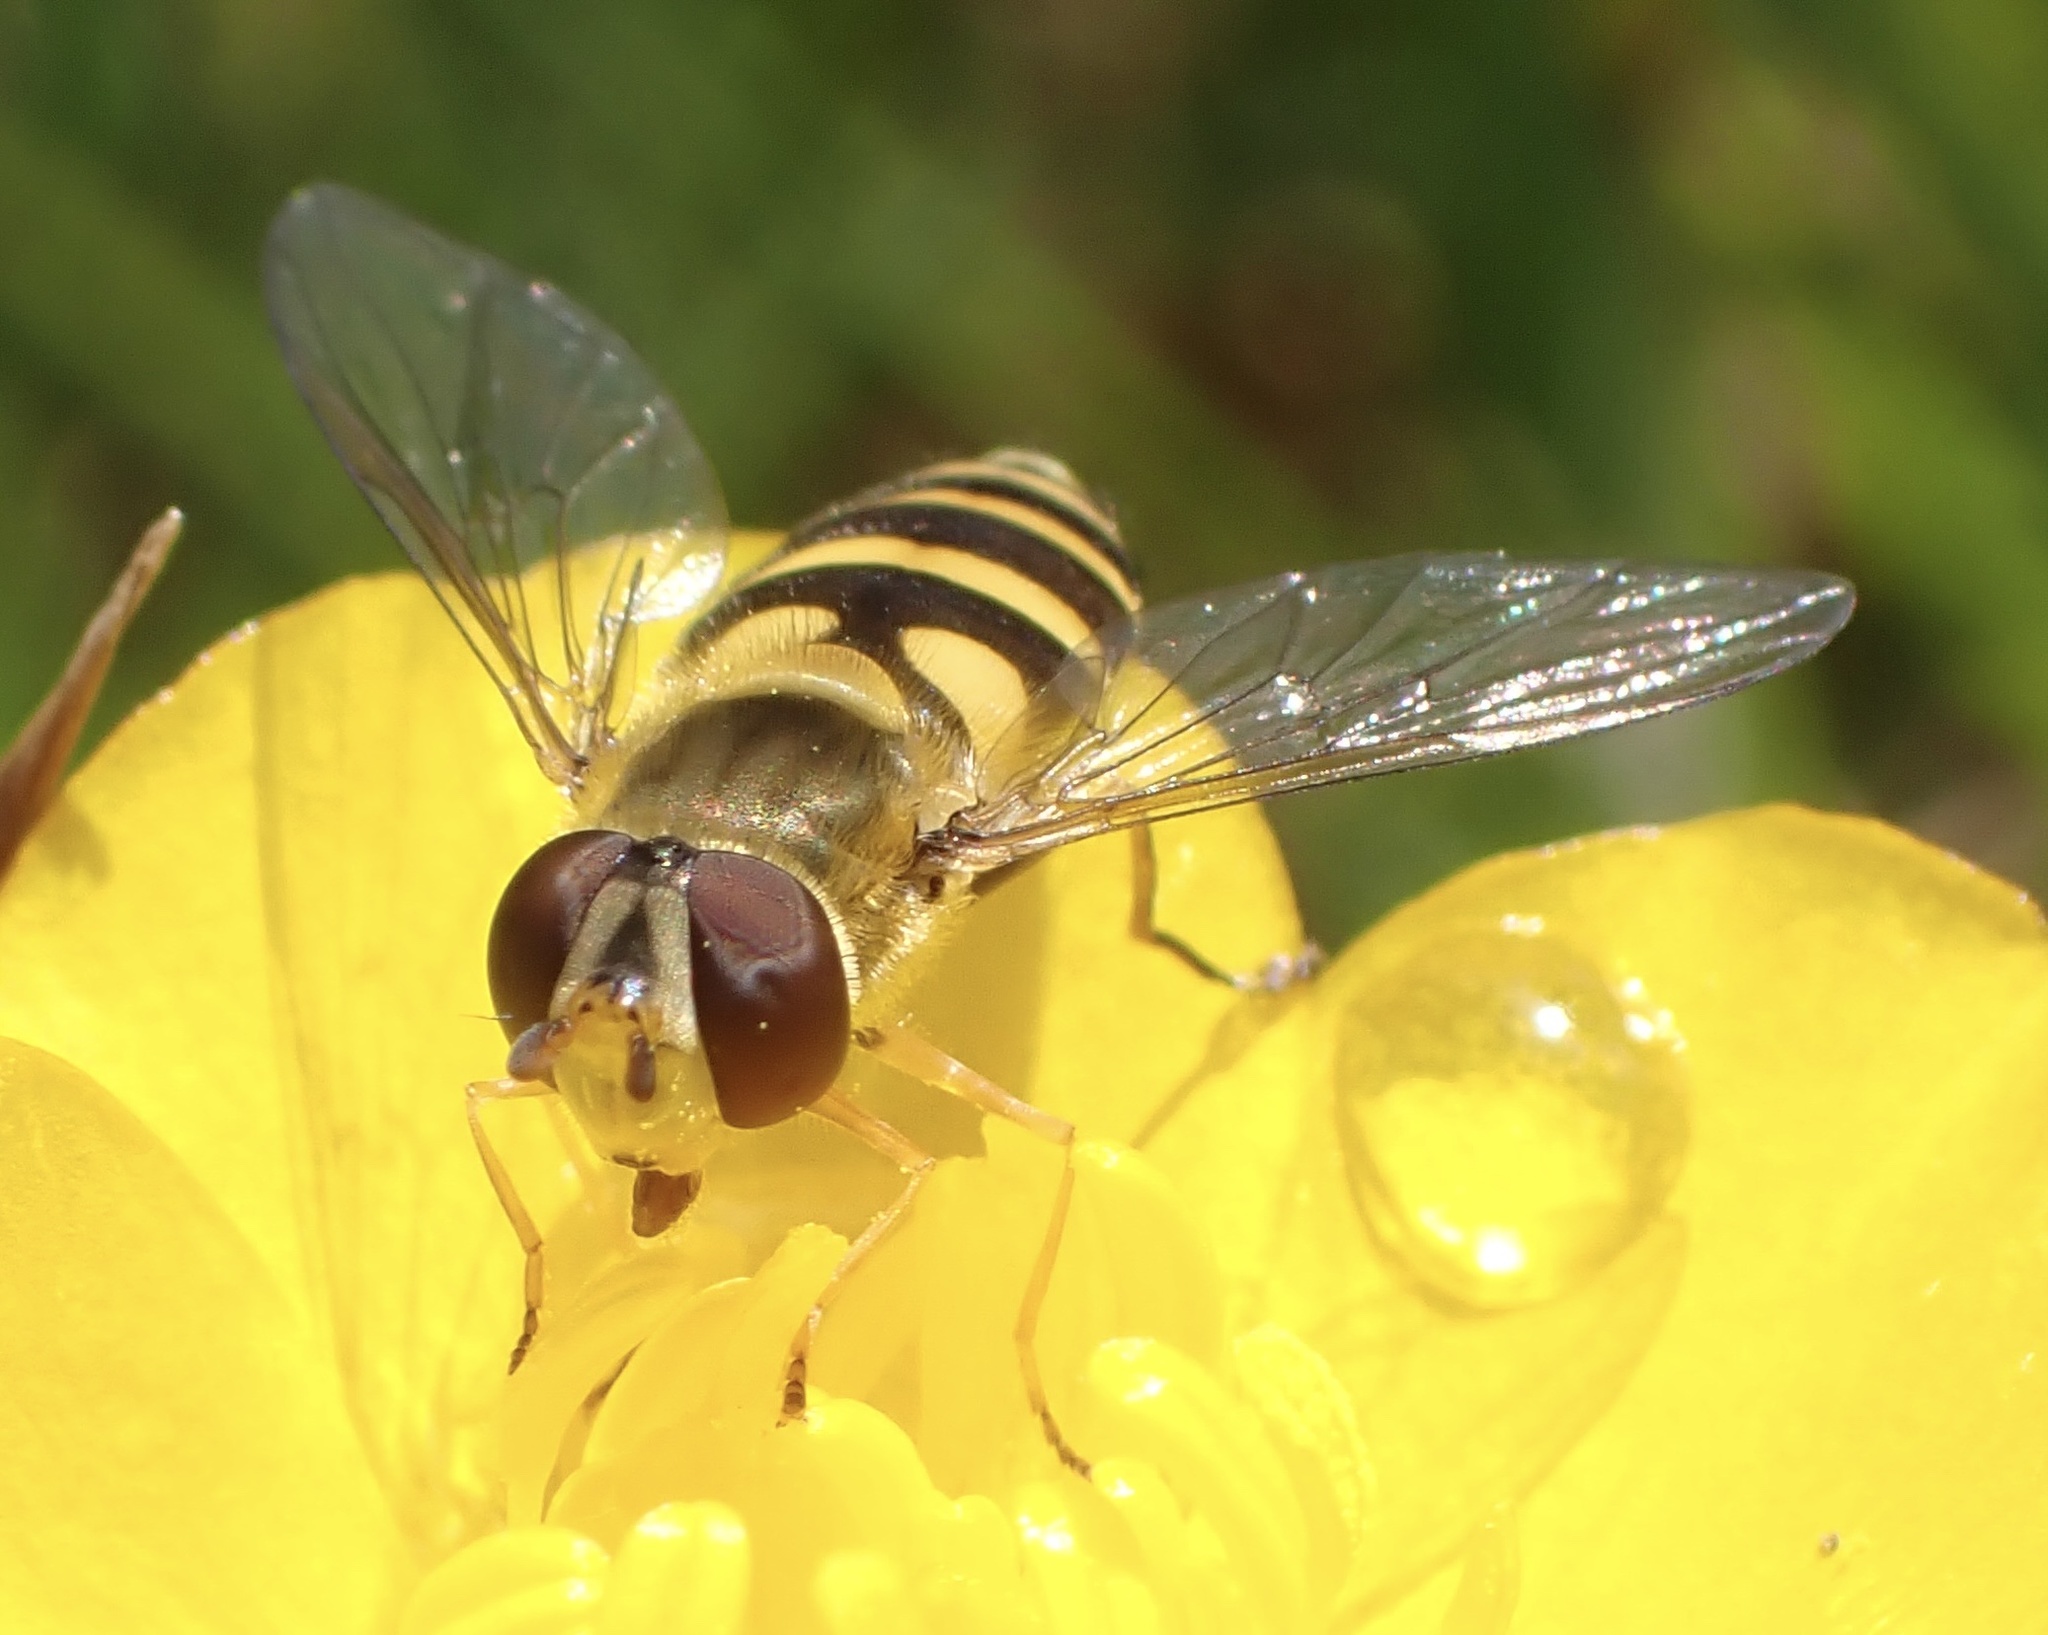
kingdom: Animalia
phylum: Arthropoda
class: Insecta
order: Diptera
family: Syrphidae
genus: Syrphus
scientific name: Syrphus vitripennis
